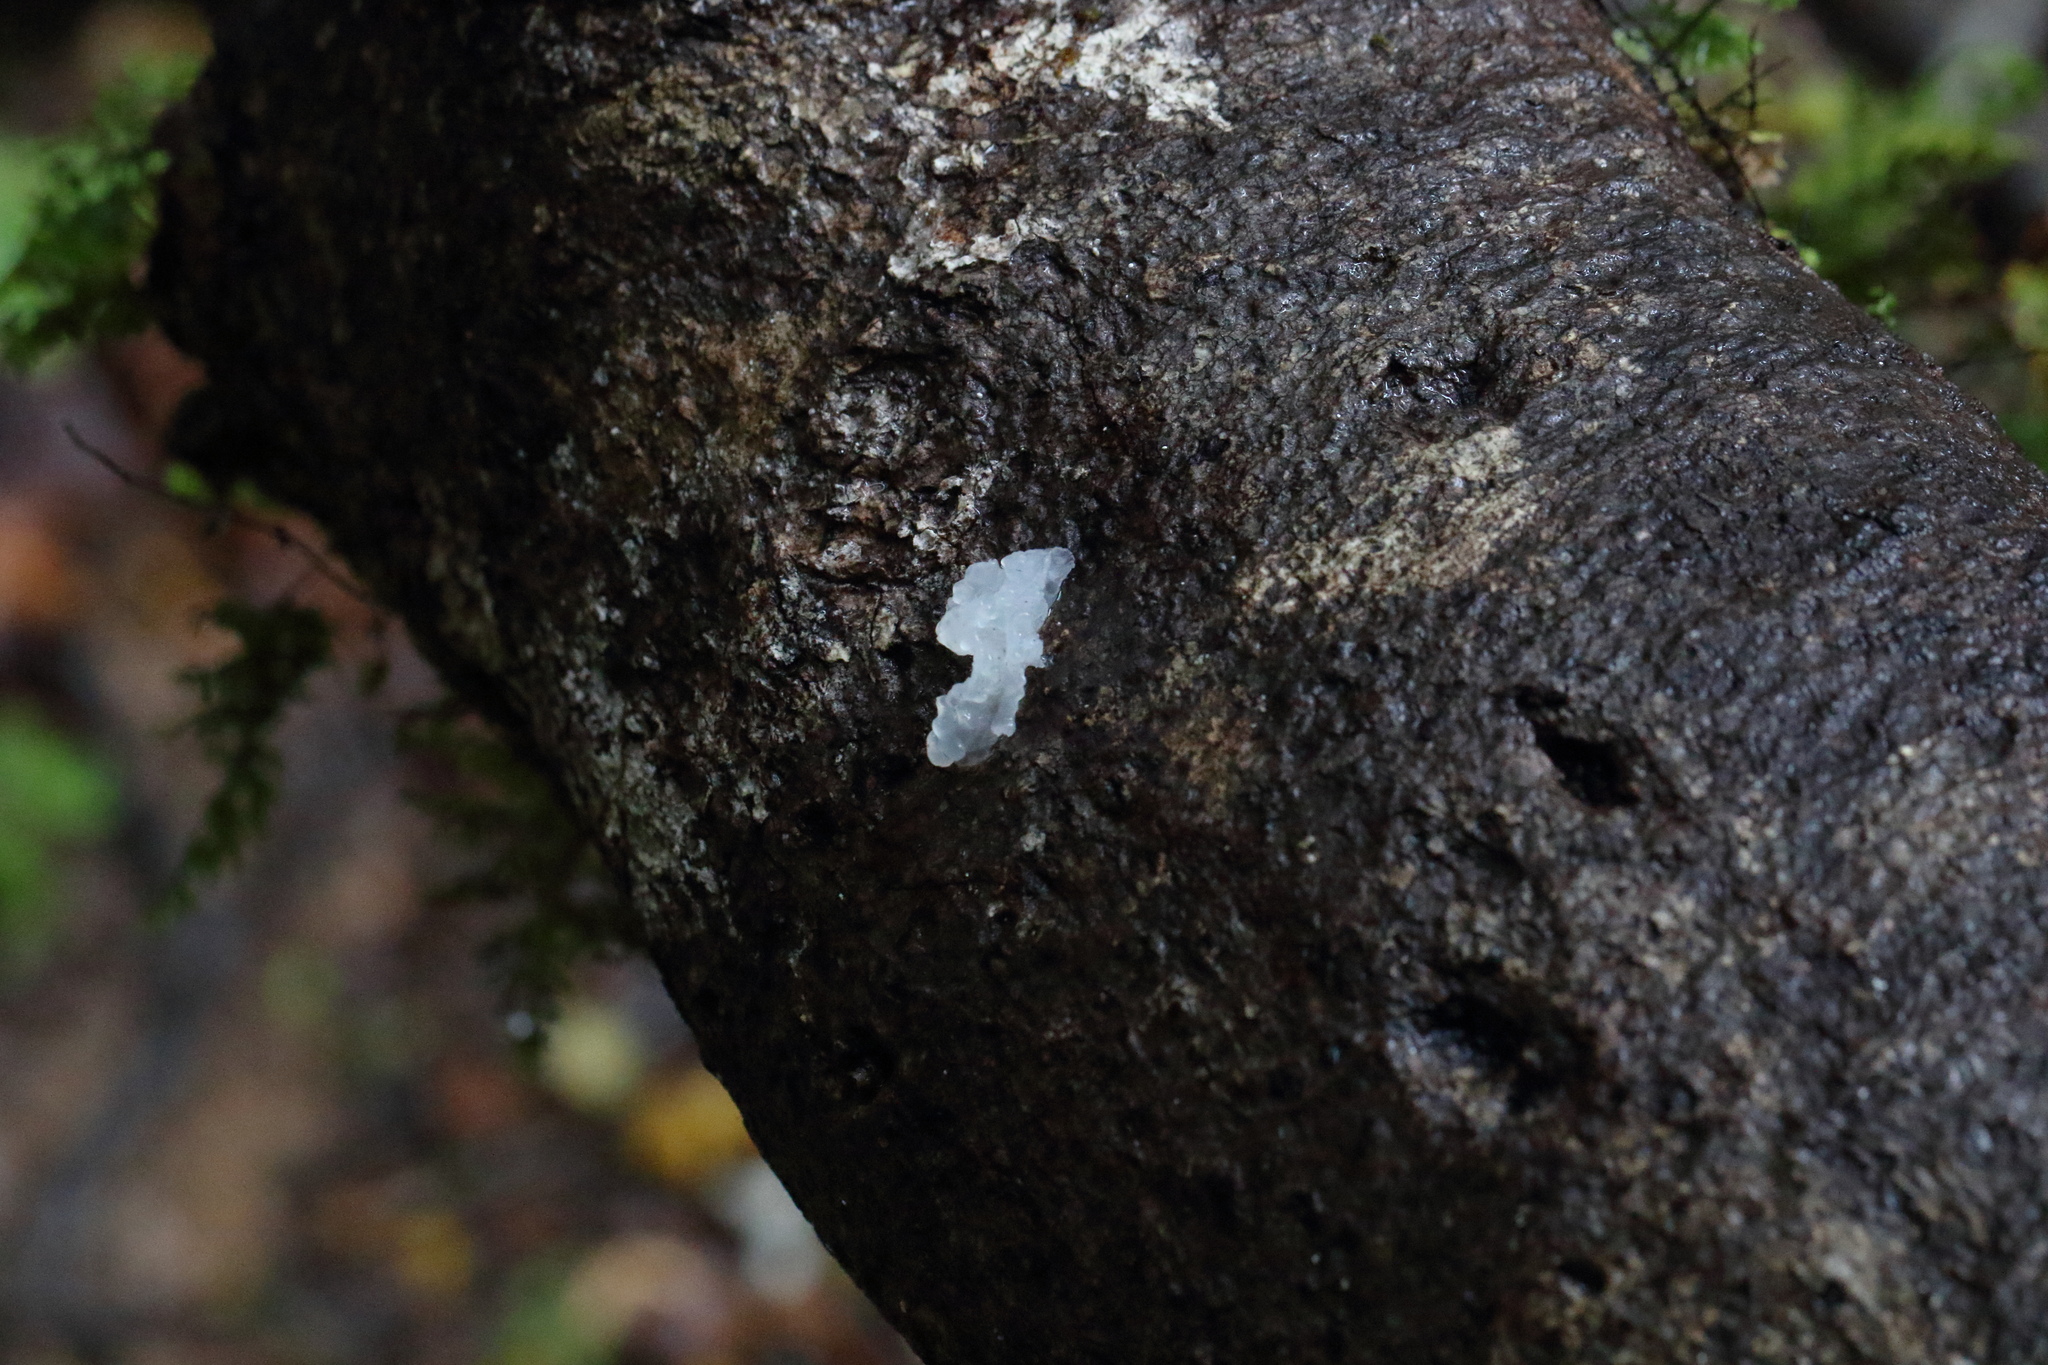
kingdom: Fungi
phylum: Basidiomycota
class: Tremellomycetes
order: Tremellales
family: Tremellaceae
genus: Tremella
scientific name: Tremella fuciformis
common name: Snow fungus
